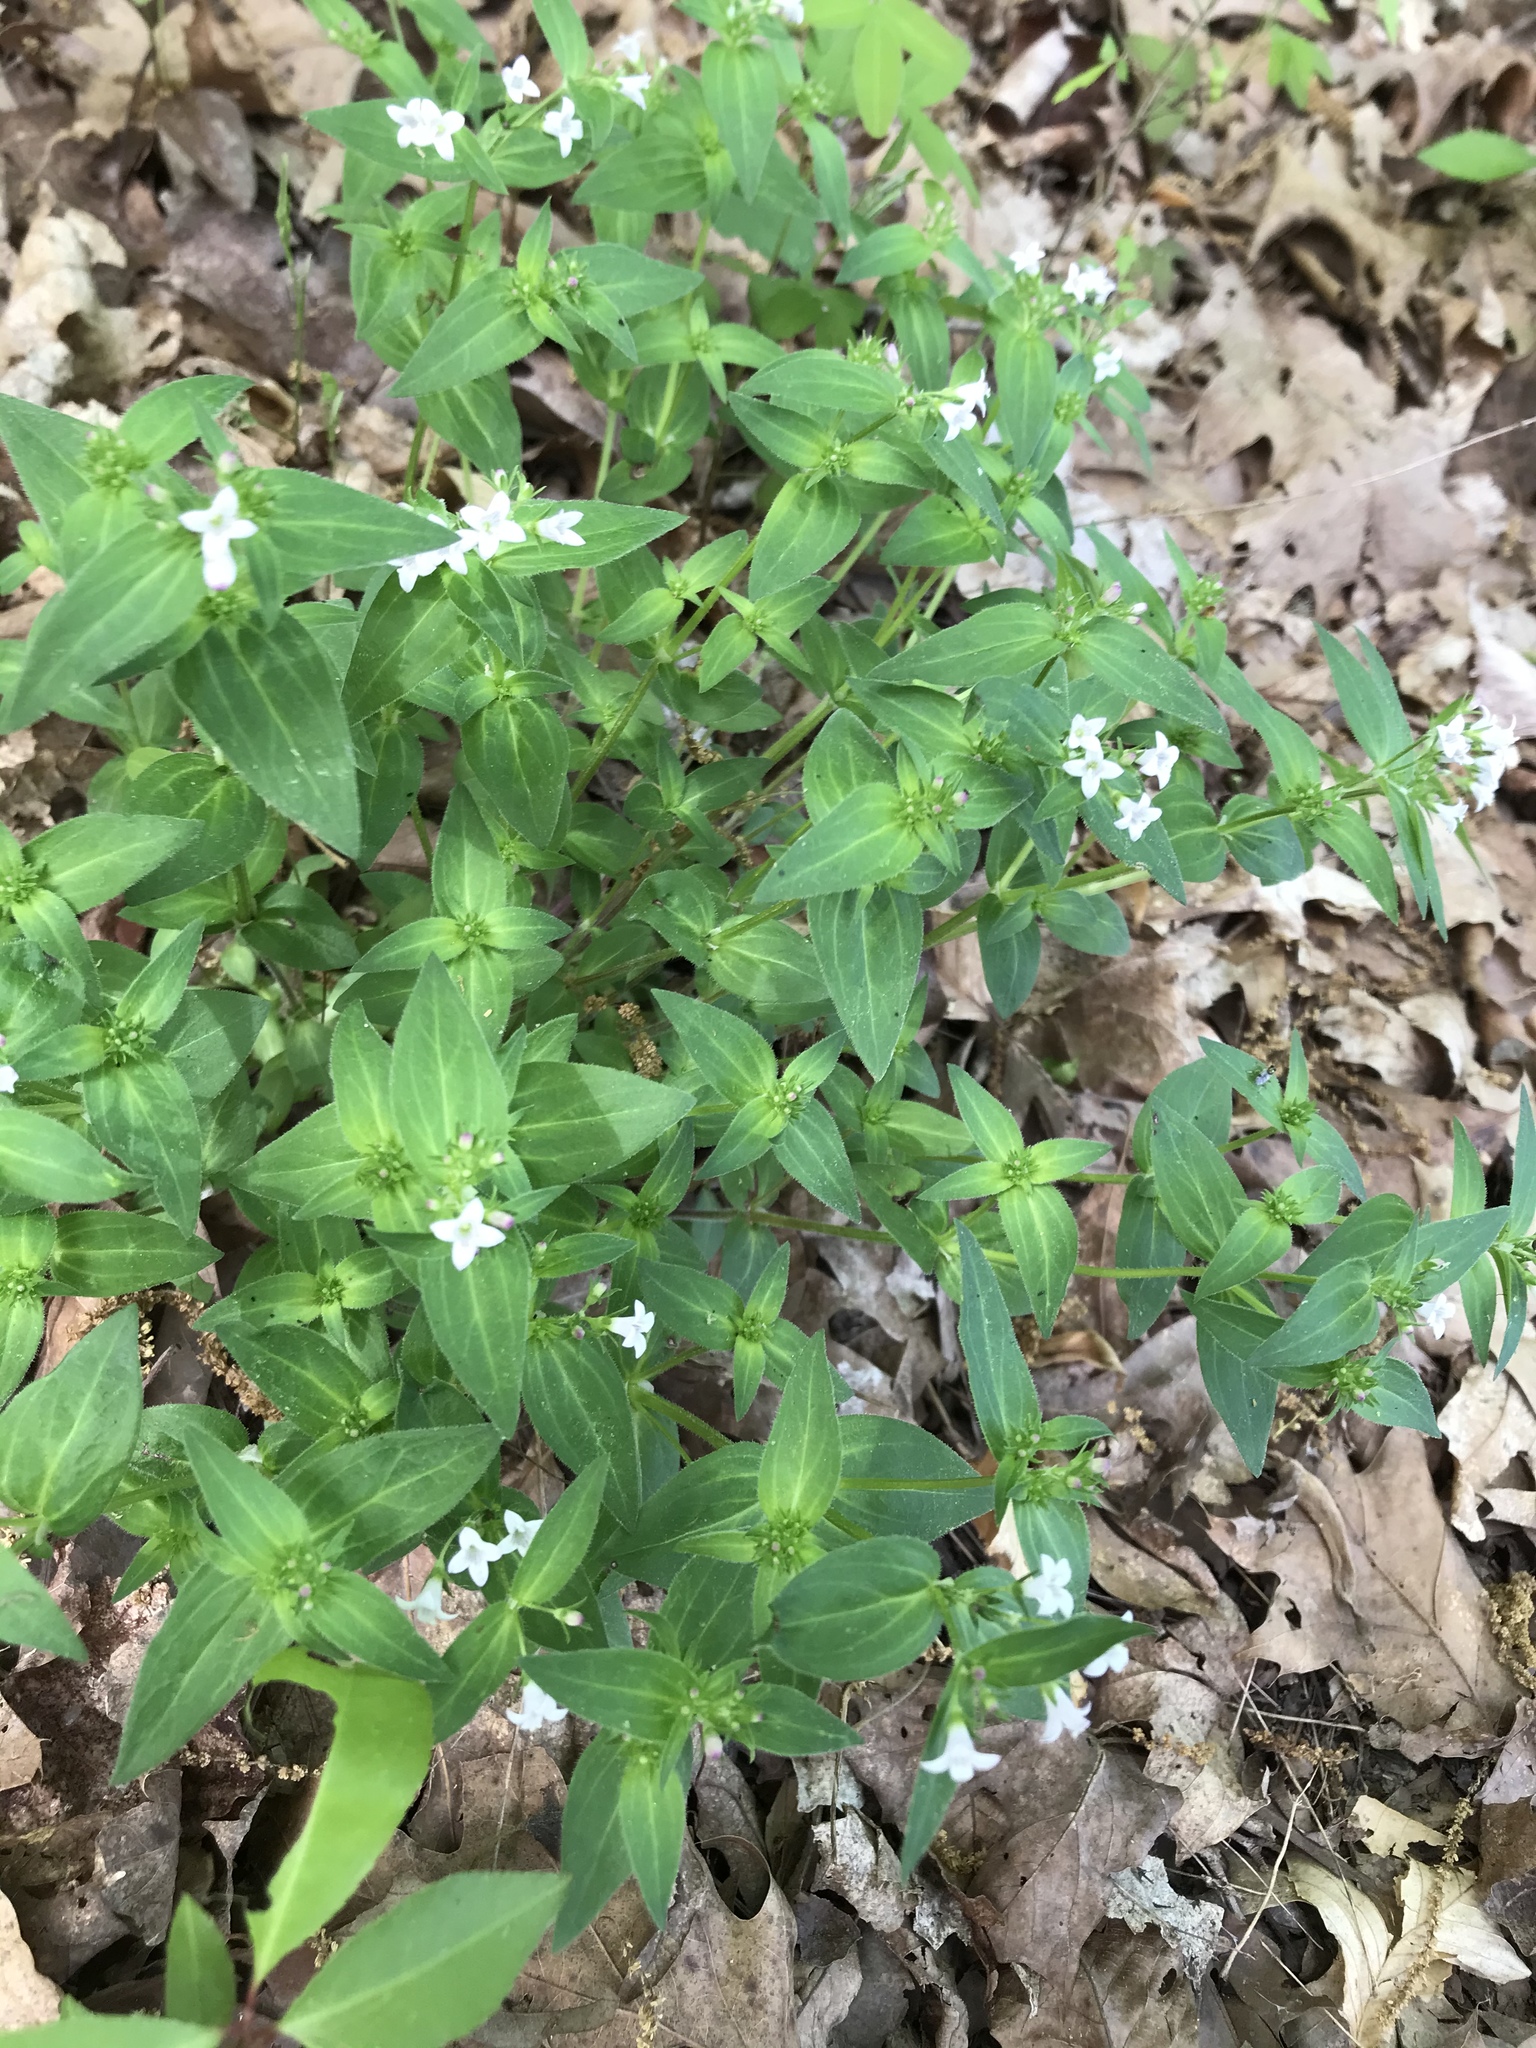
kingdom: Plantae
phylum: Tracheophyta
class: Magnoliopsida
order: Gentianales
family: Rubiaceae
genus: Houstonia
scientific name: Houstonia purpurea
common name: Summer bluet
